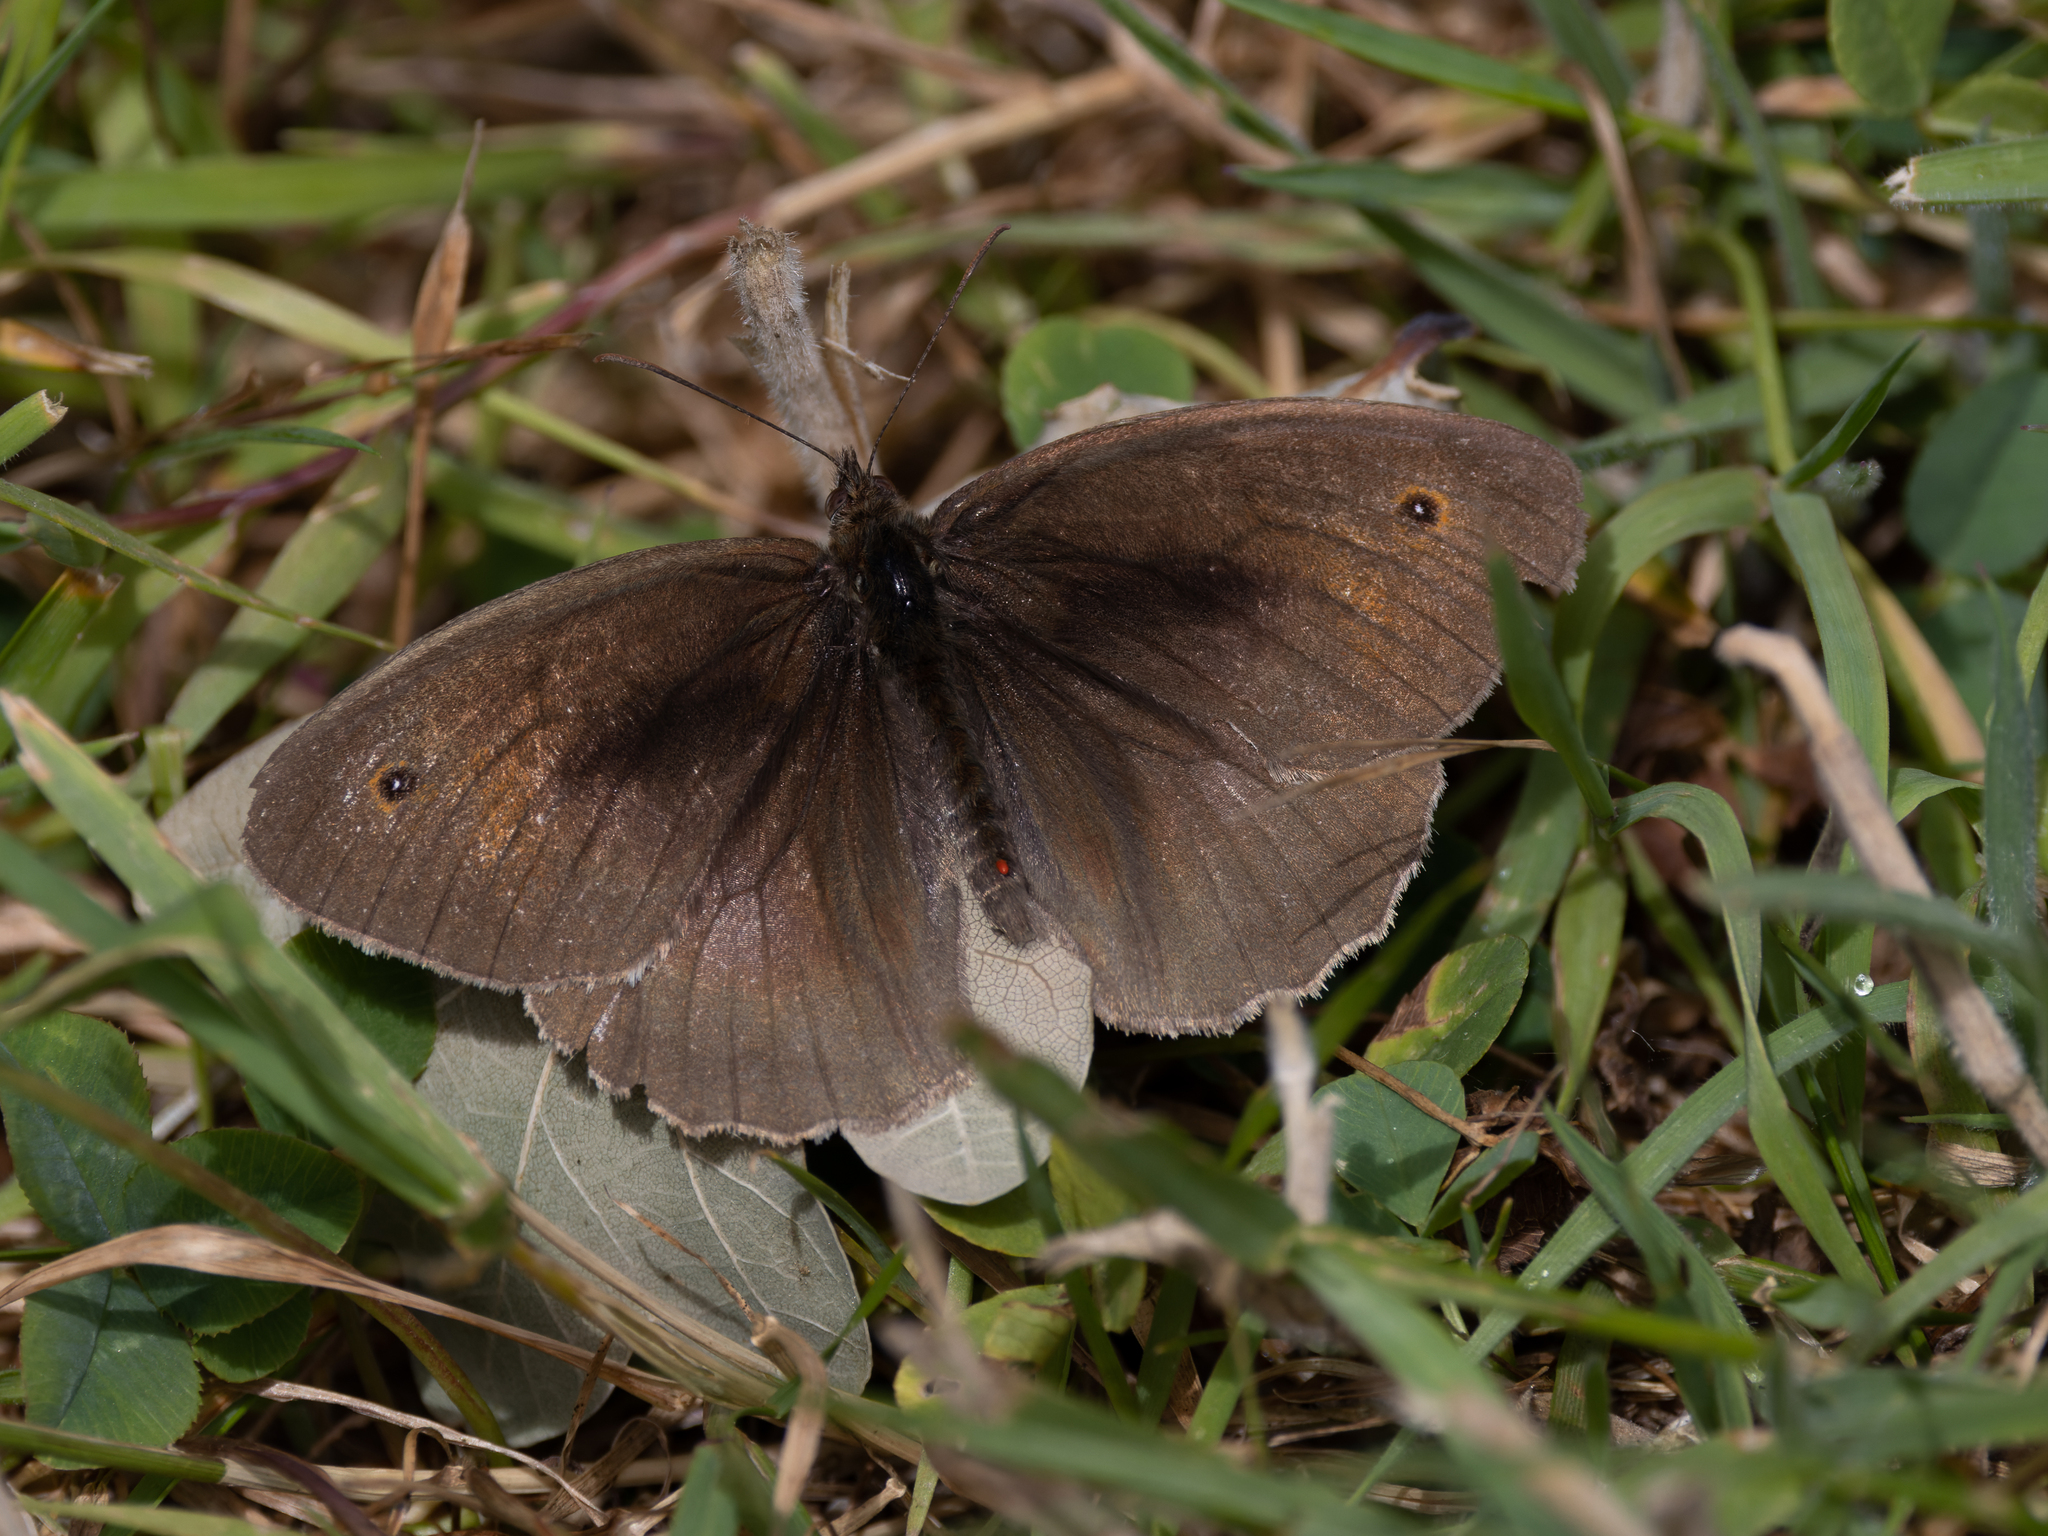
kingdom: Animalia
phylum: Arthropoda
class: Insecta
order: Lepidoptera
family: Nymphalidae
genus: Maniola
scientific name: Maniola jurtina
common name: Meadow brown
